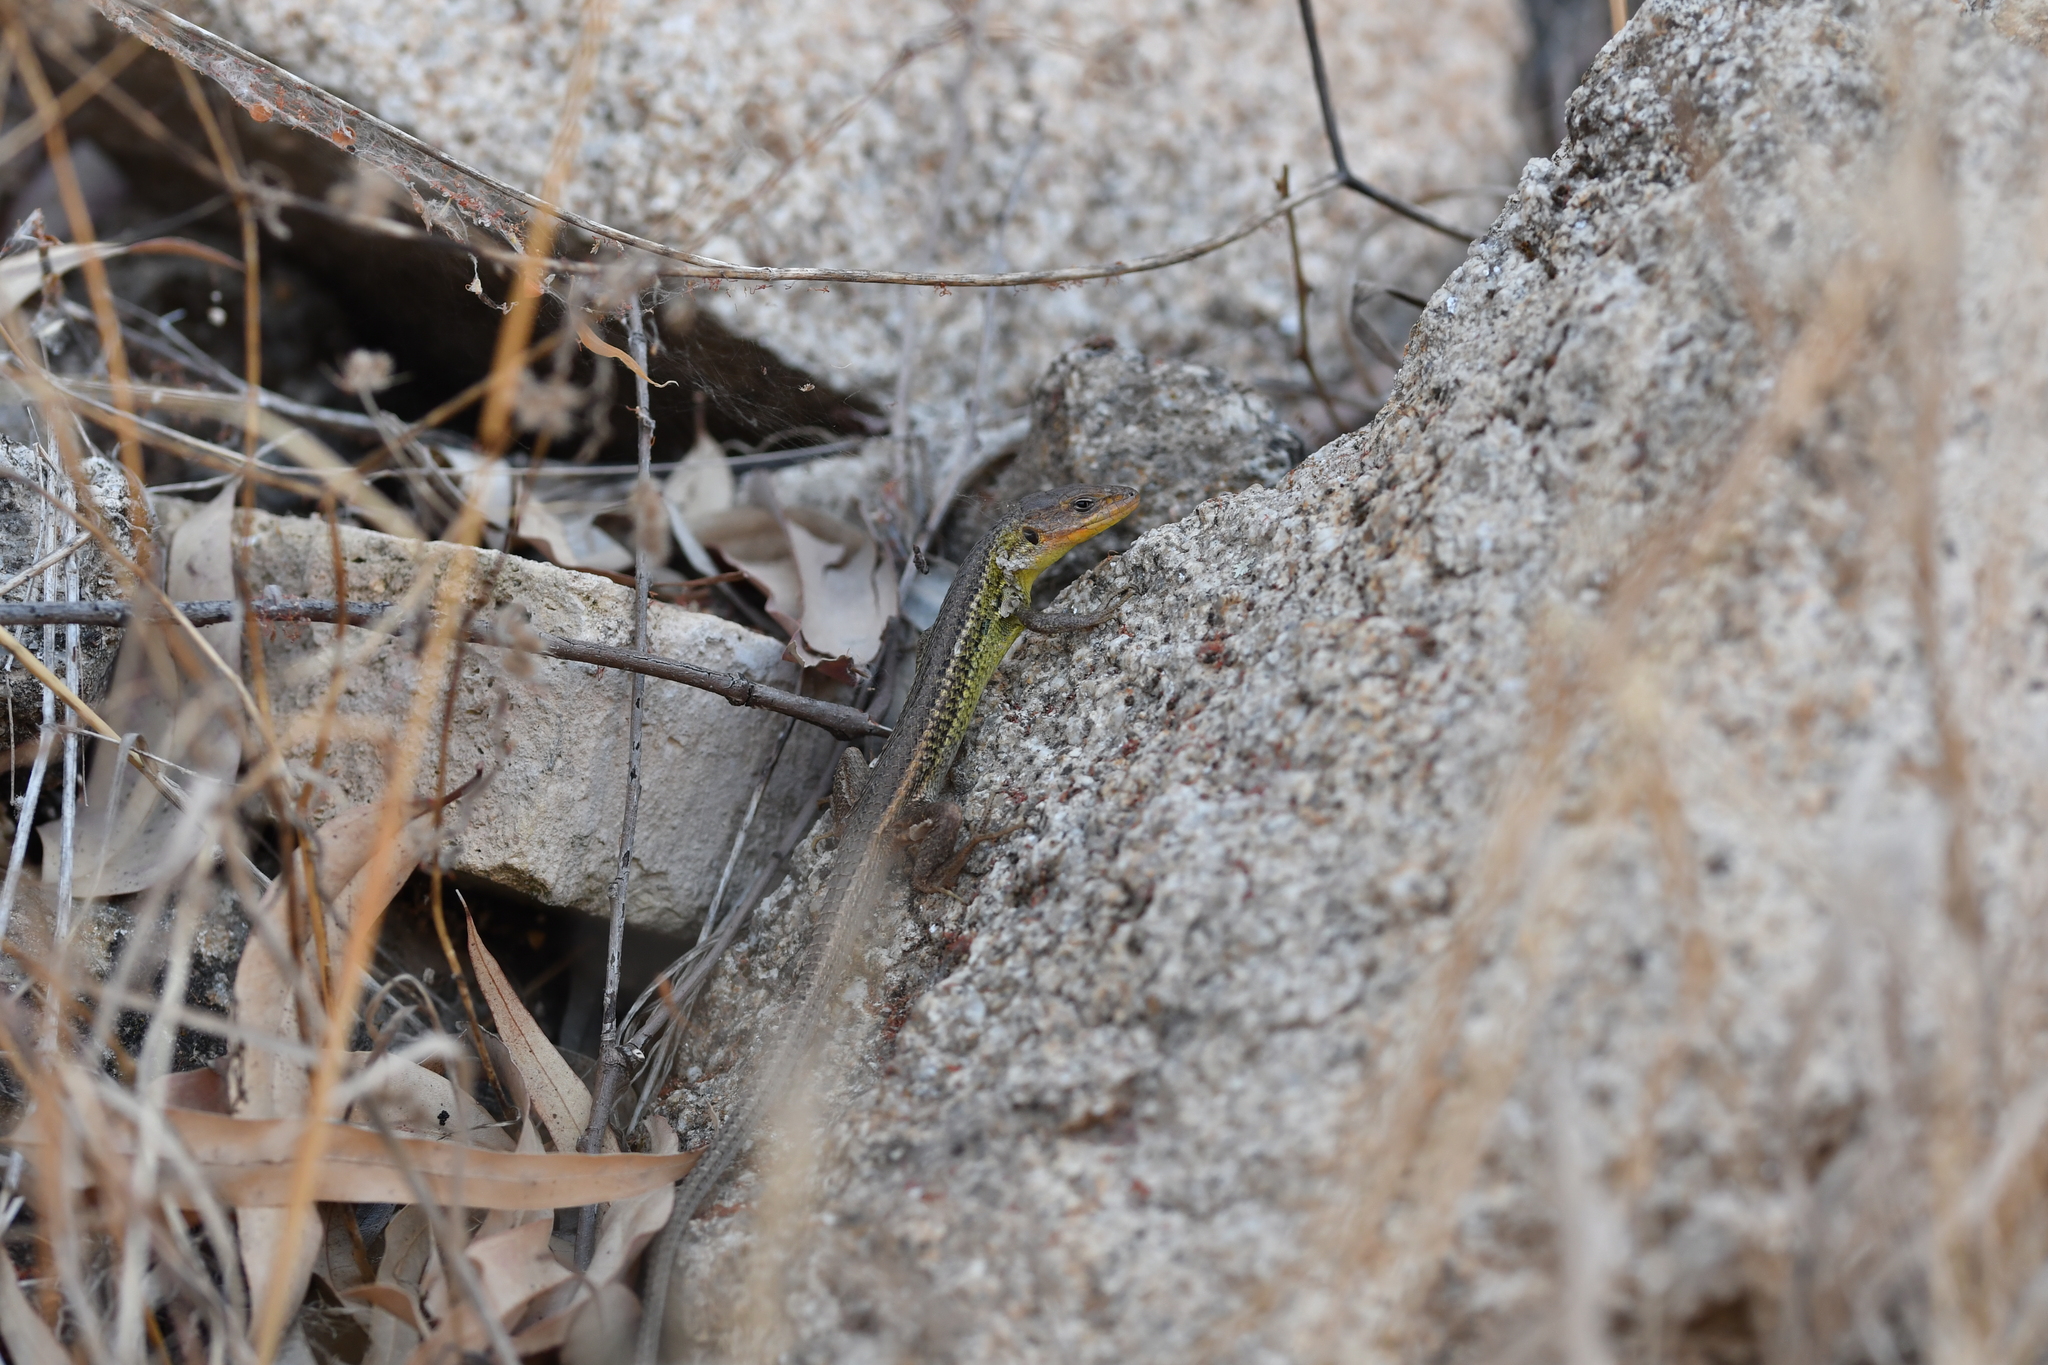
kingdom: Animalia
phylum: Chordata
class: Squamata
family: Lacertidae
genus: Psammodromus
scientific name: Psammodromus algirus
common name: Algerian psammodromus
